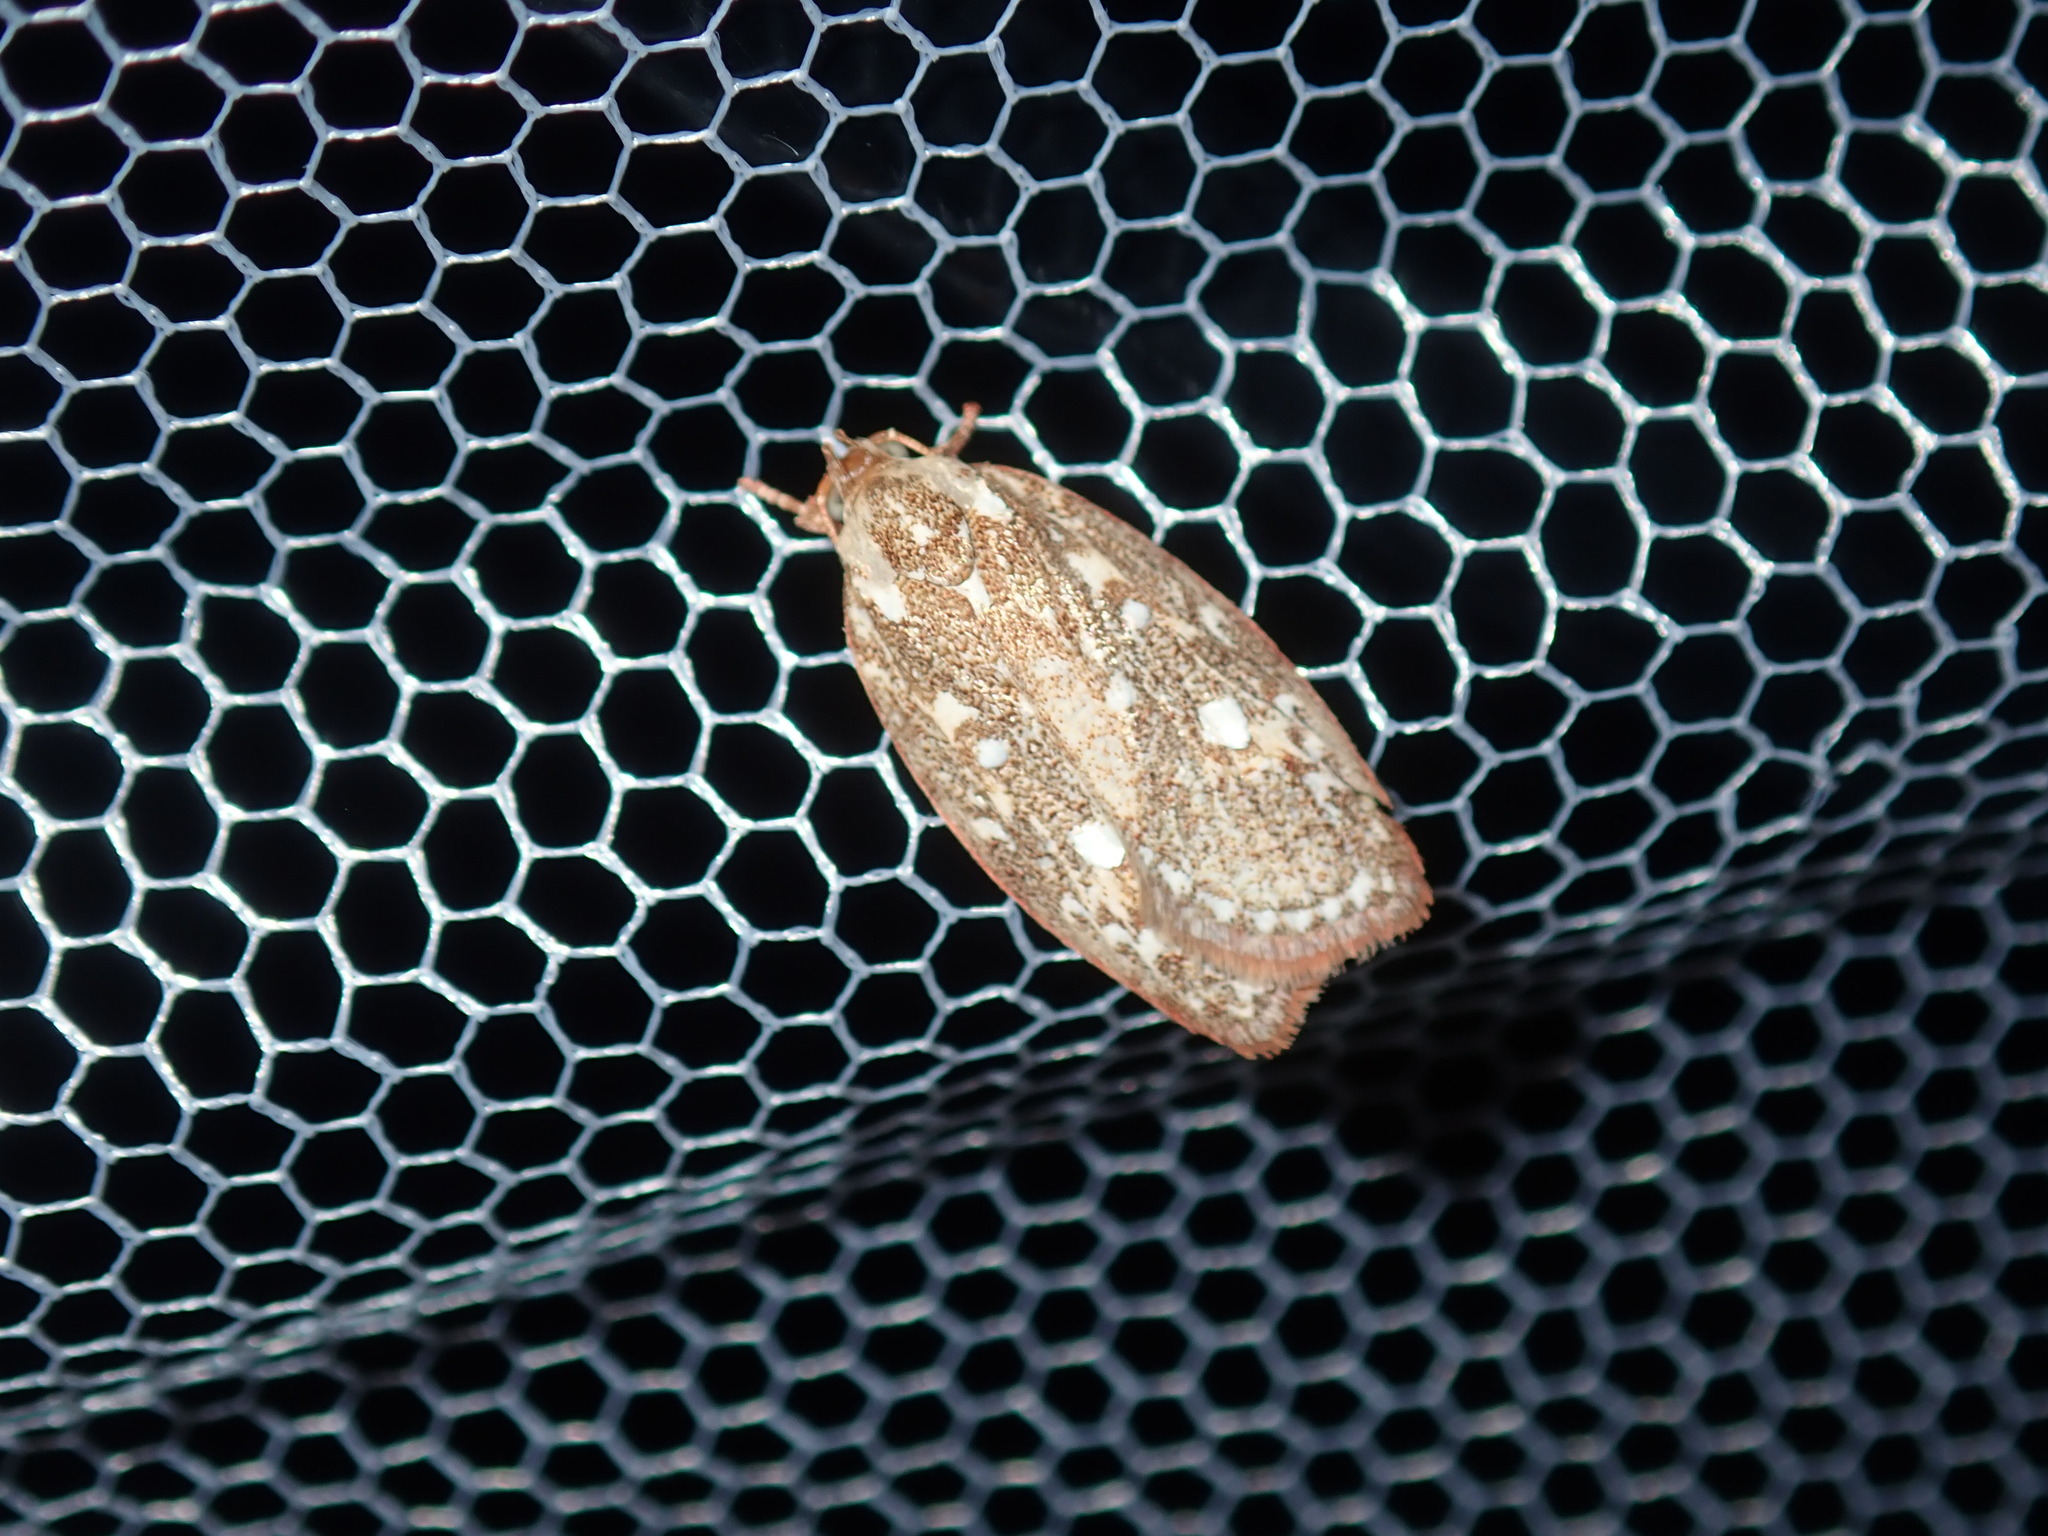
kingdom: Animalia
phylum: Arthropoda
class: Insecta
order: Lepidoptera
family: Oecophoridae
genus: Euchaetis
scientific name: Euchaetis metallota
